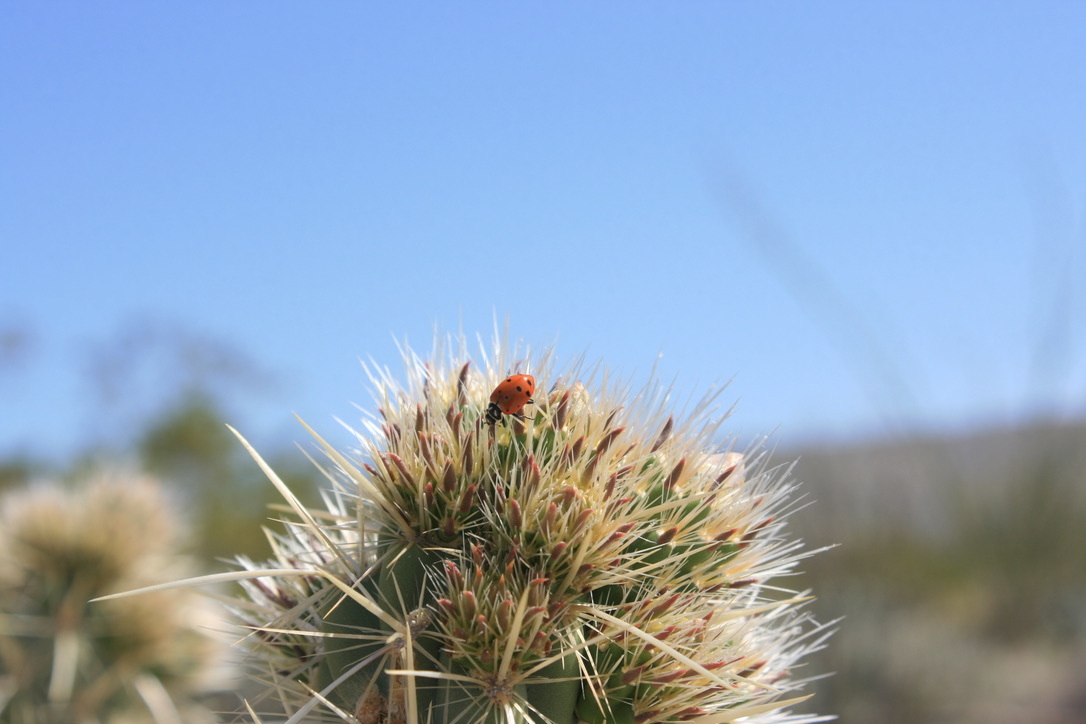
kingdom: Animalia
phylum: Arthropoda
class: Insecta
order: Coleoptera
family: Coccinellidae
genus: Hippodamia
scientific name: Hippodamia convergens
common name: Convergent lady beetle
